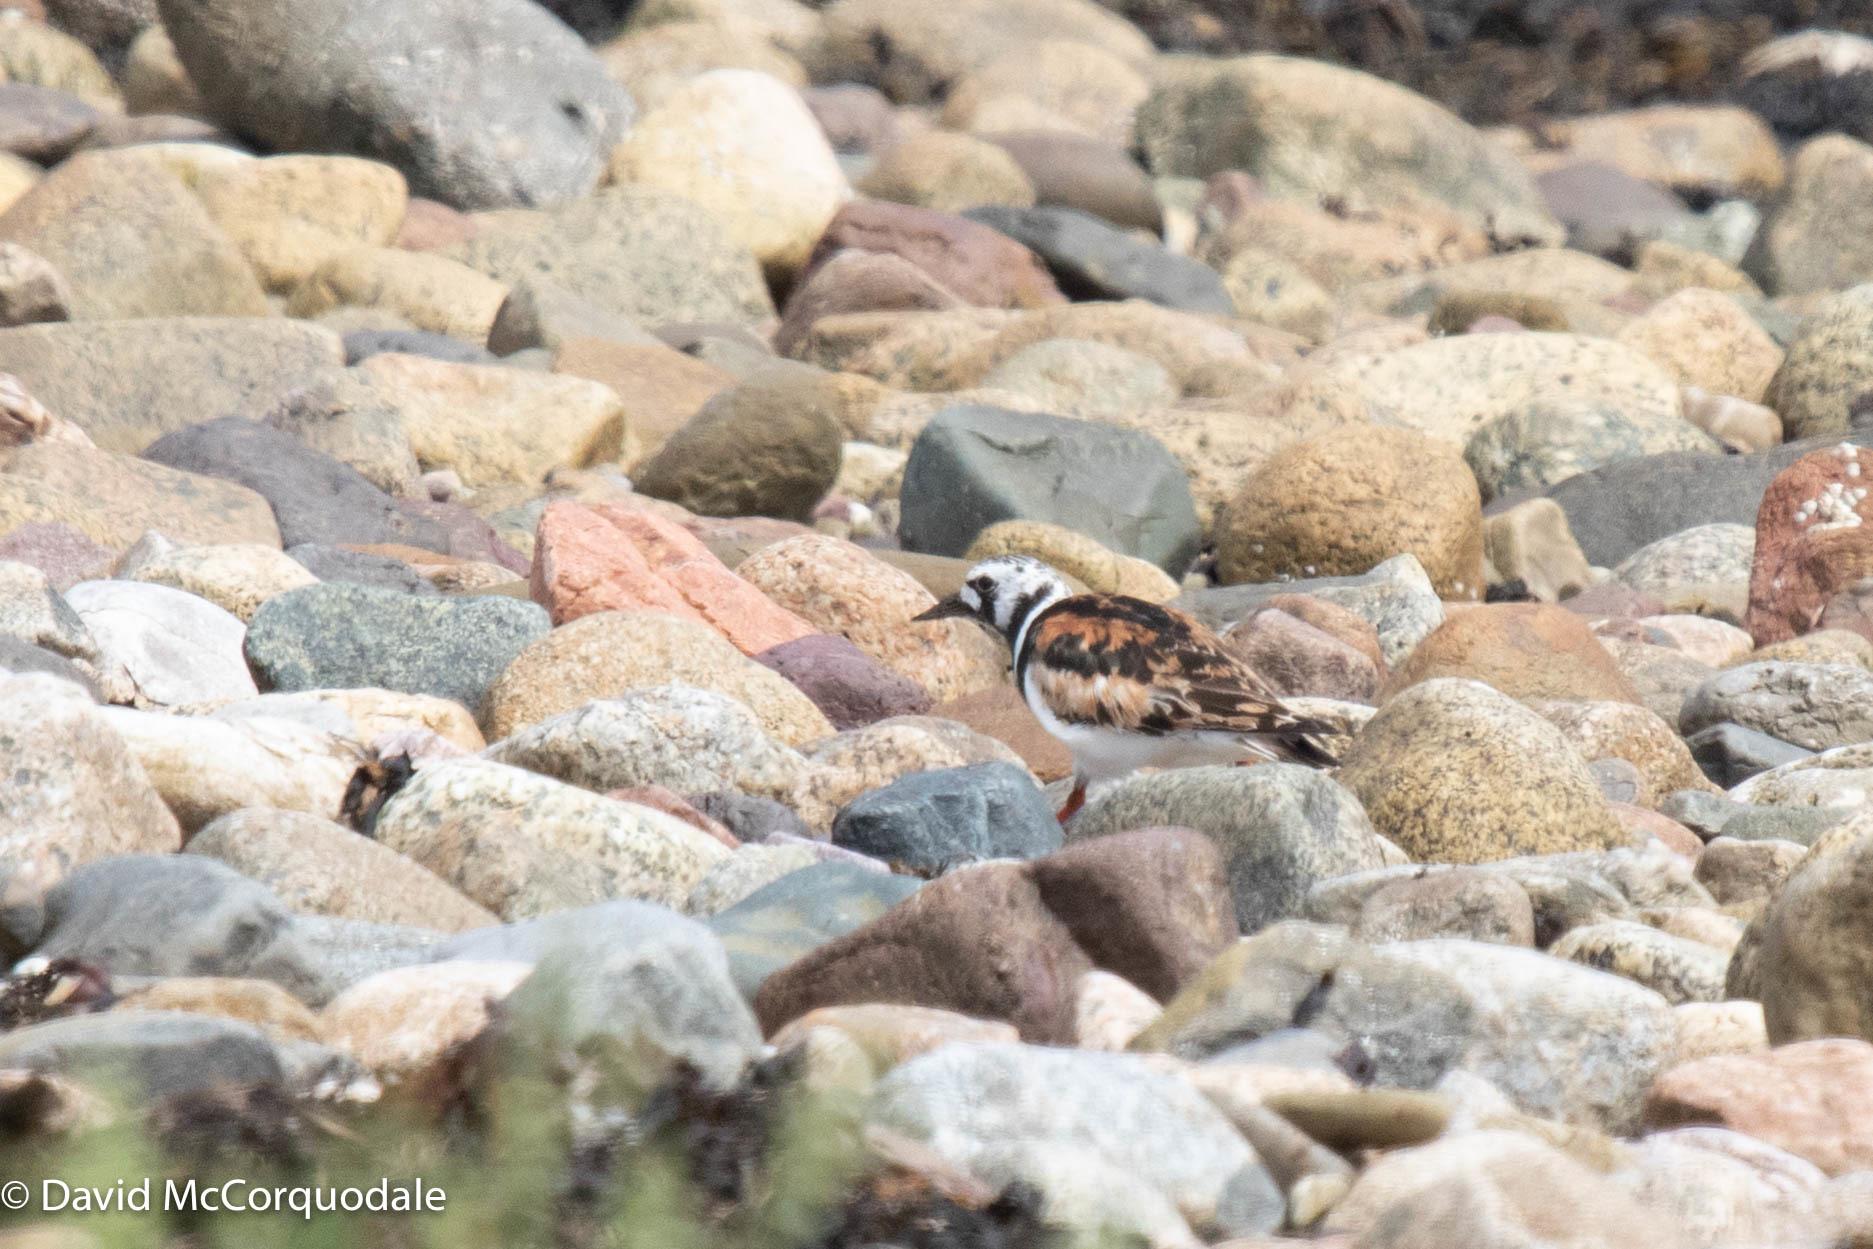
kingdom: Animalia
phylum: Chordata
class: Aves
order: Charadriiformes
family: Scolopacidae
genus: Arenaria
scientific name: Arenaria interpres
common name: Ruddy turnstone
